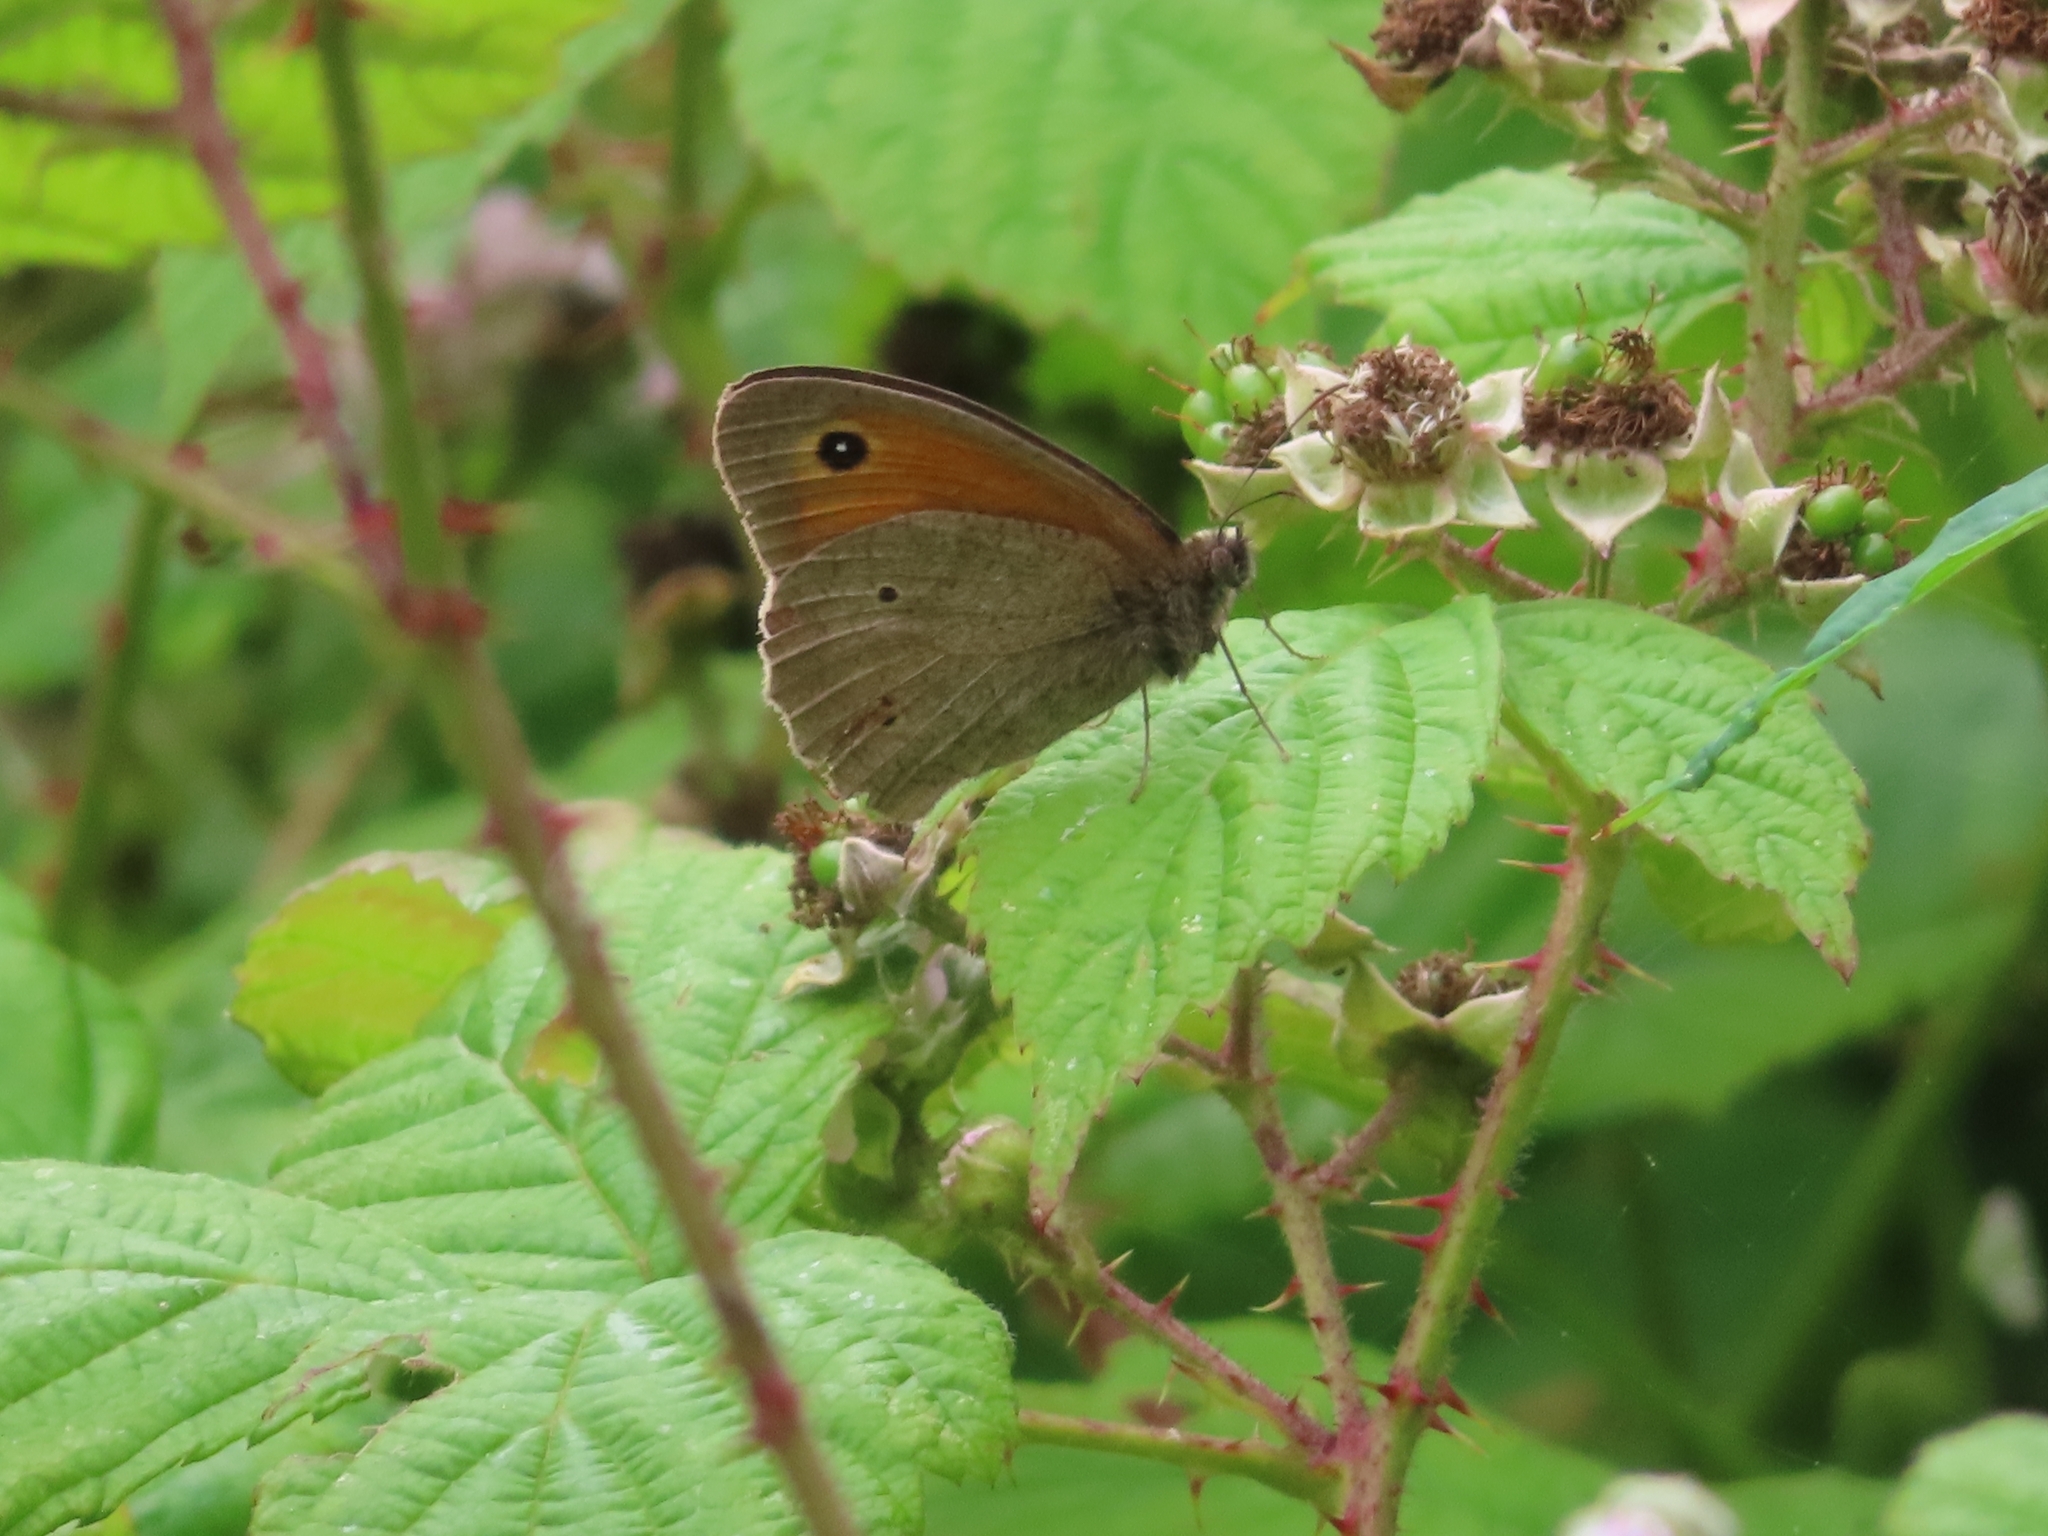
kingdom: Animalia
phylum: Arthropoda
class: Insecta
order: Lepidoptera
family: Nymphalidae
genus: Maniola
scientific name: Maniola jurtina
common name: Meadow brown
